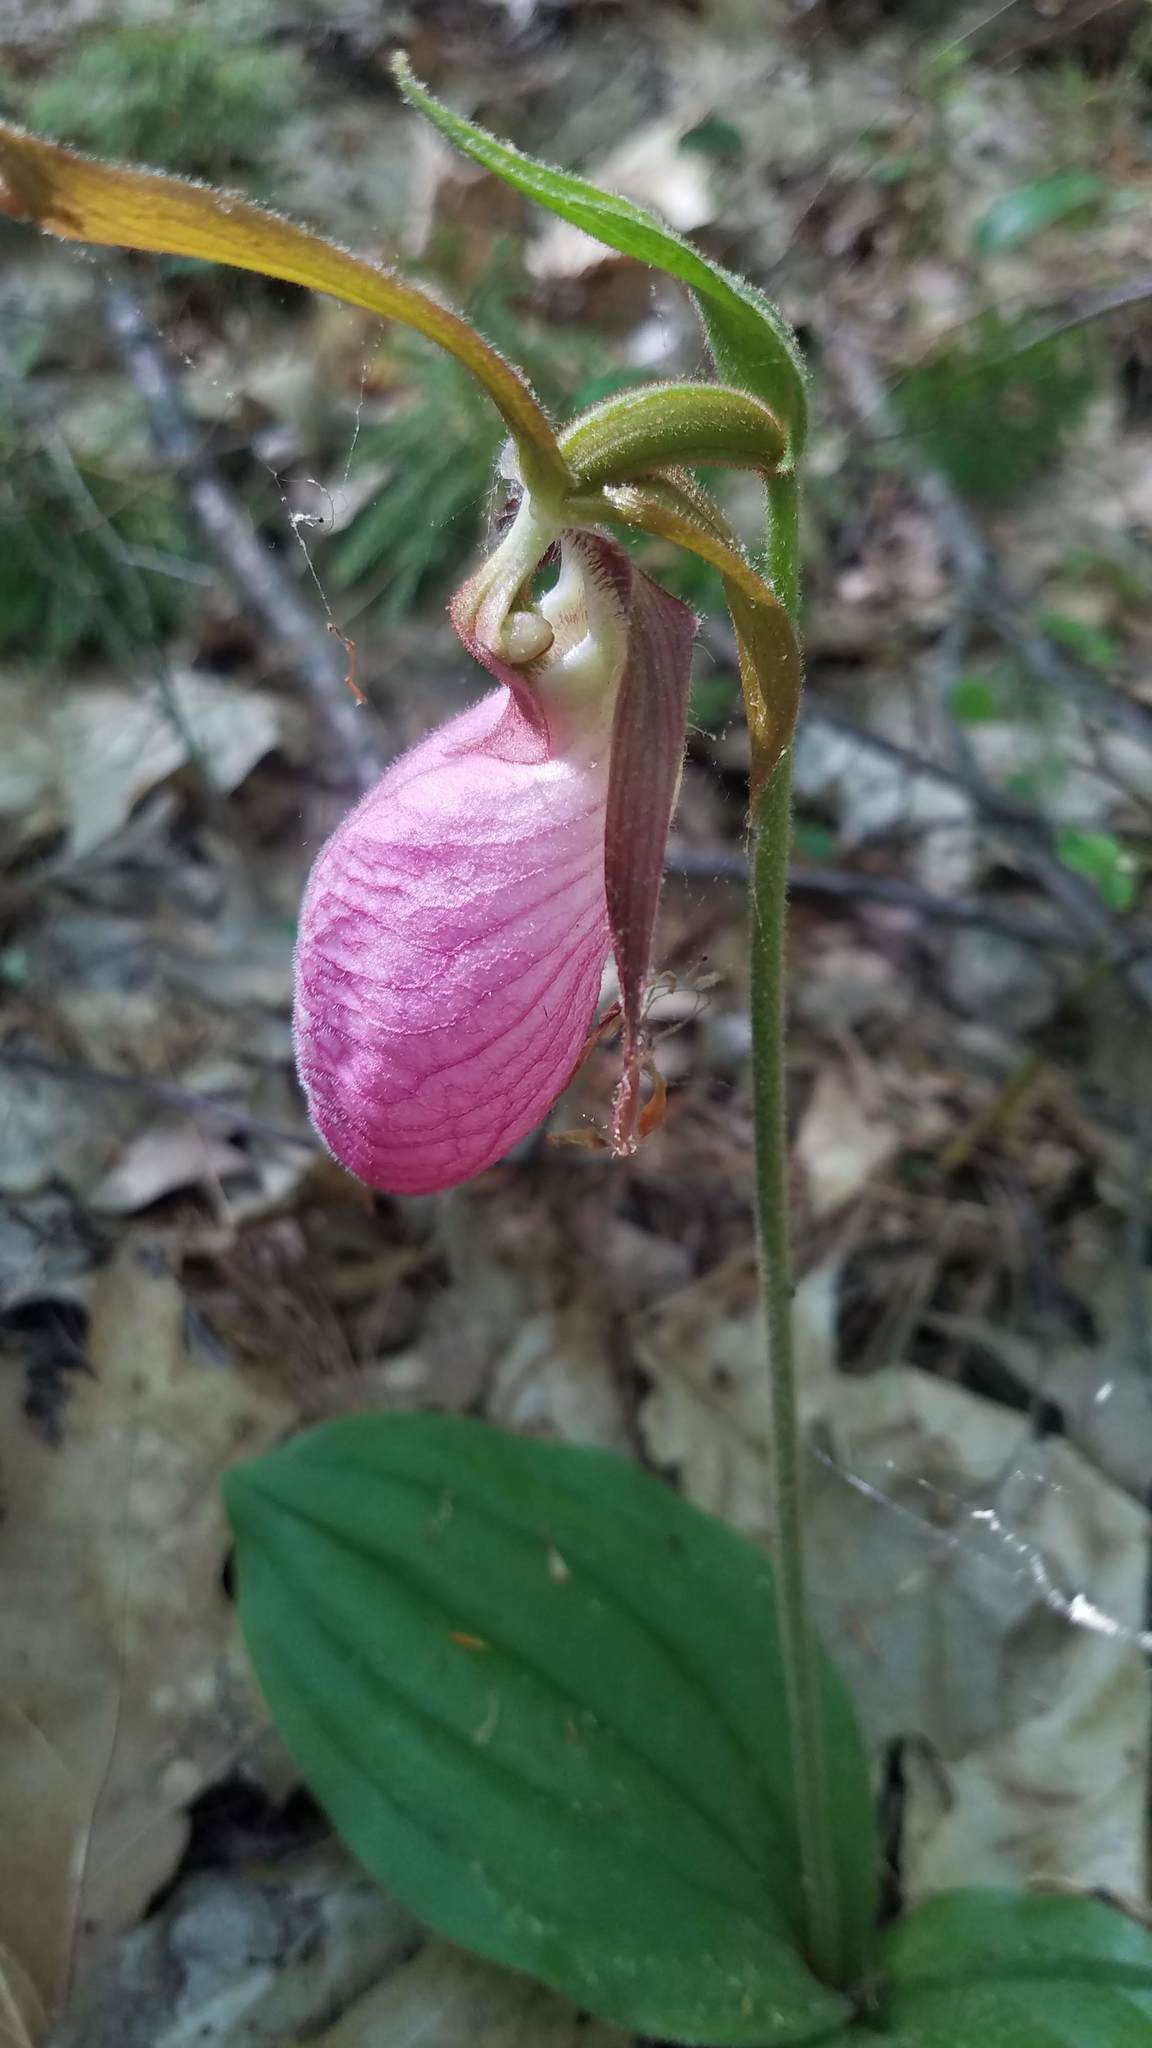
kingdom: Plantae
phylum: Tracheophyta
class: Liliopsida
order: Asparagales
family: Orchidaceae
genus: Cypripedium
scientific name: Cypripedium acaule
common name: Pink lady's-slipper
